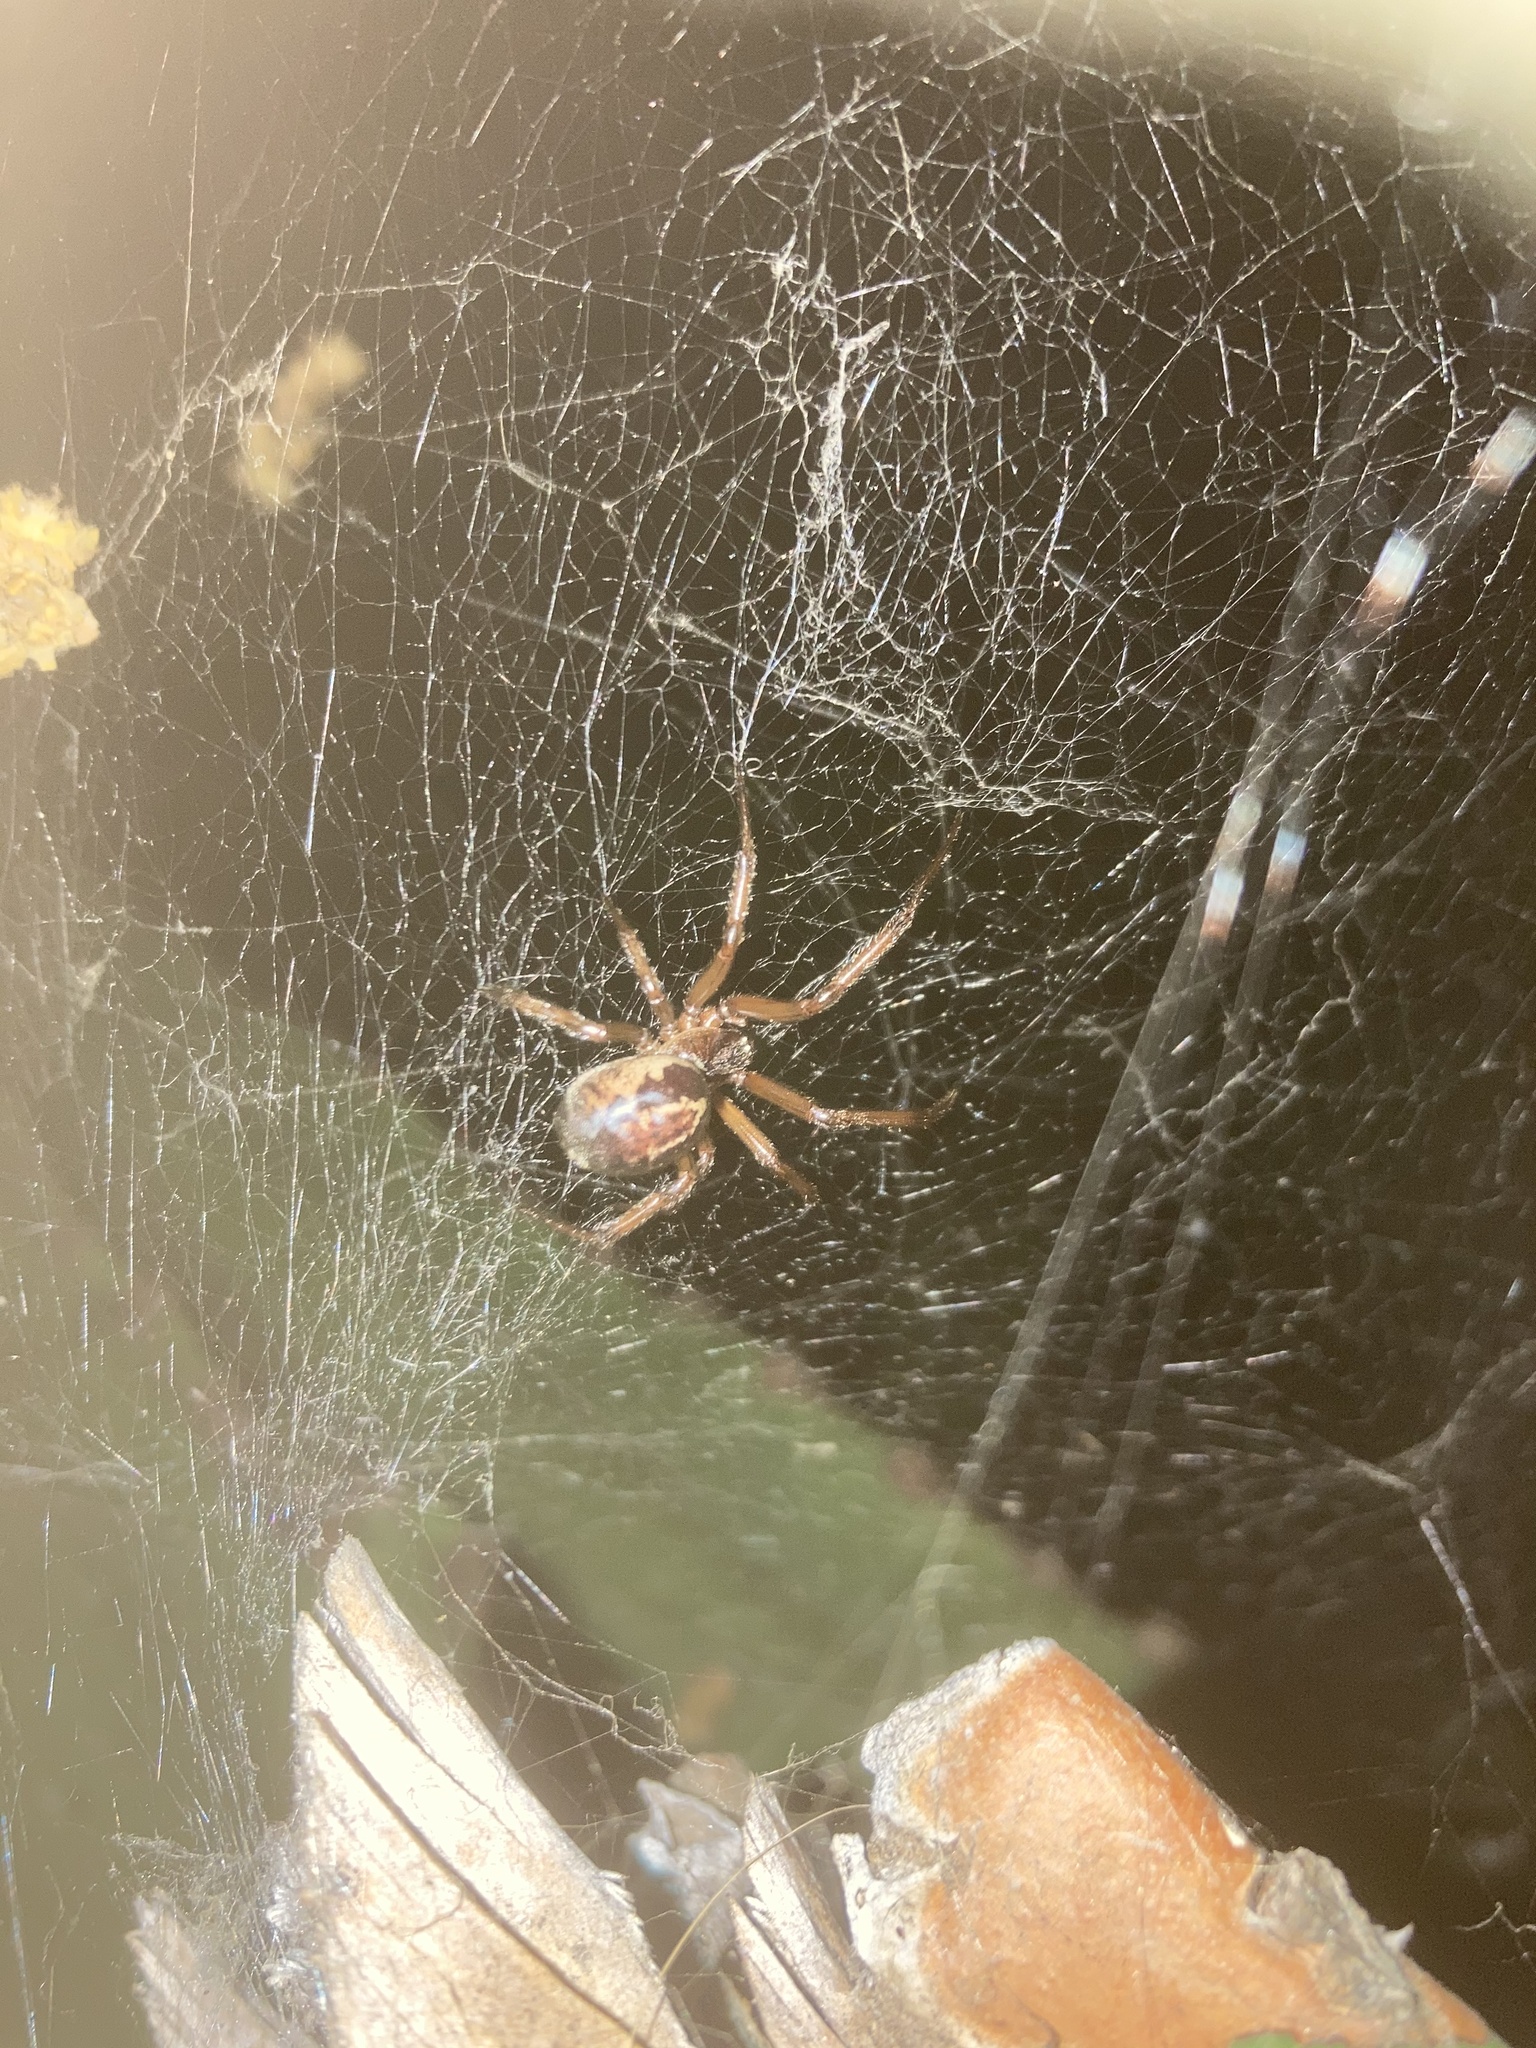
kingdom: Animalia
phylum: Arthropoda
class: Arachnida
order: Araneae
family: Theridiidae
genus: Steatoda
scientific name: Steatoda nobilis
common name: Cobweb weaver
